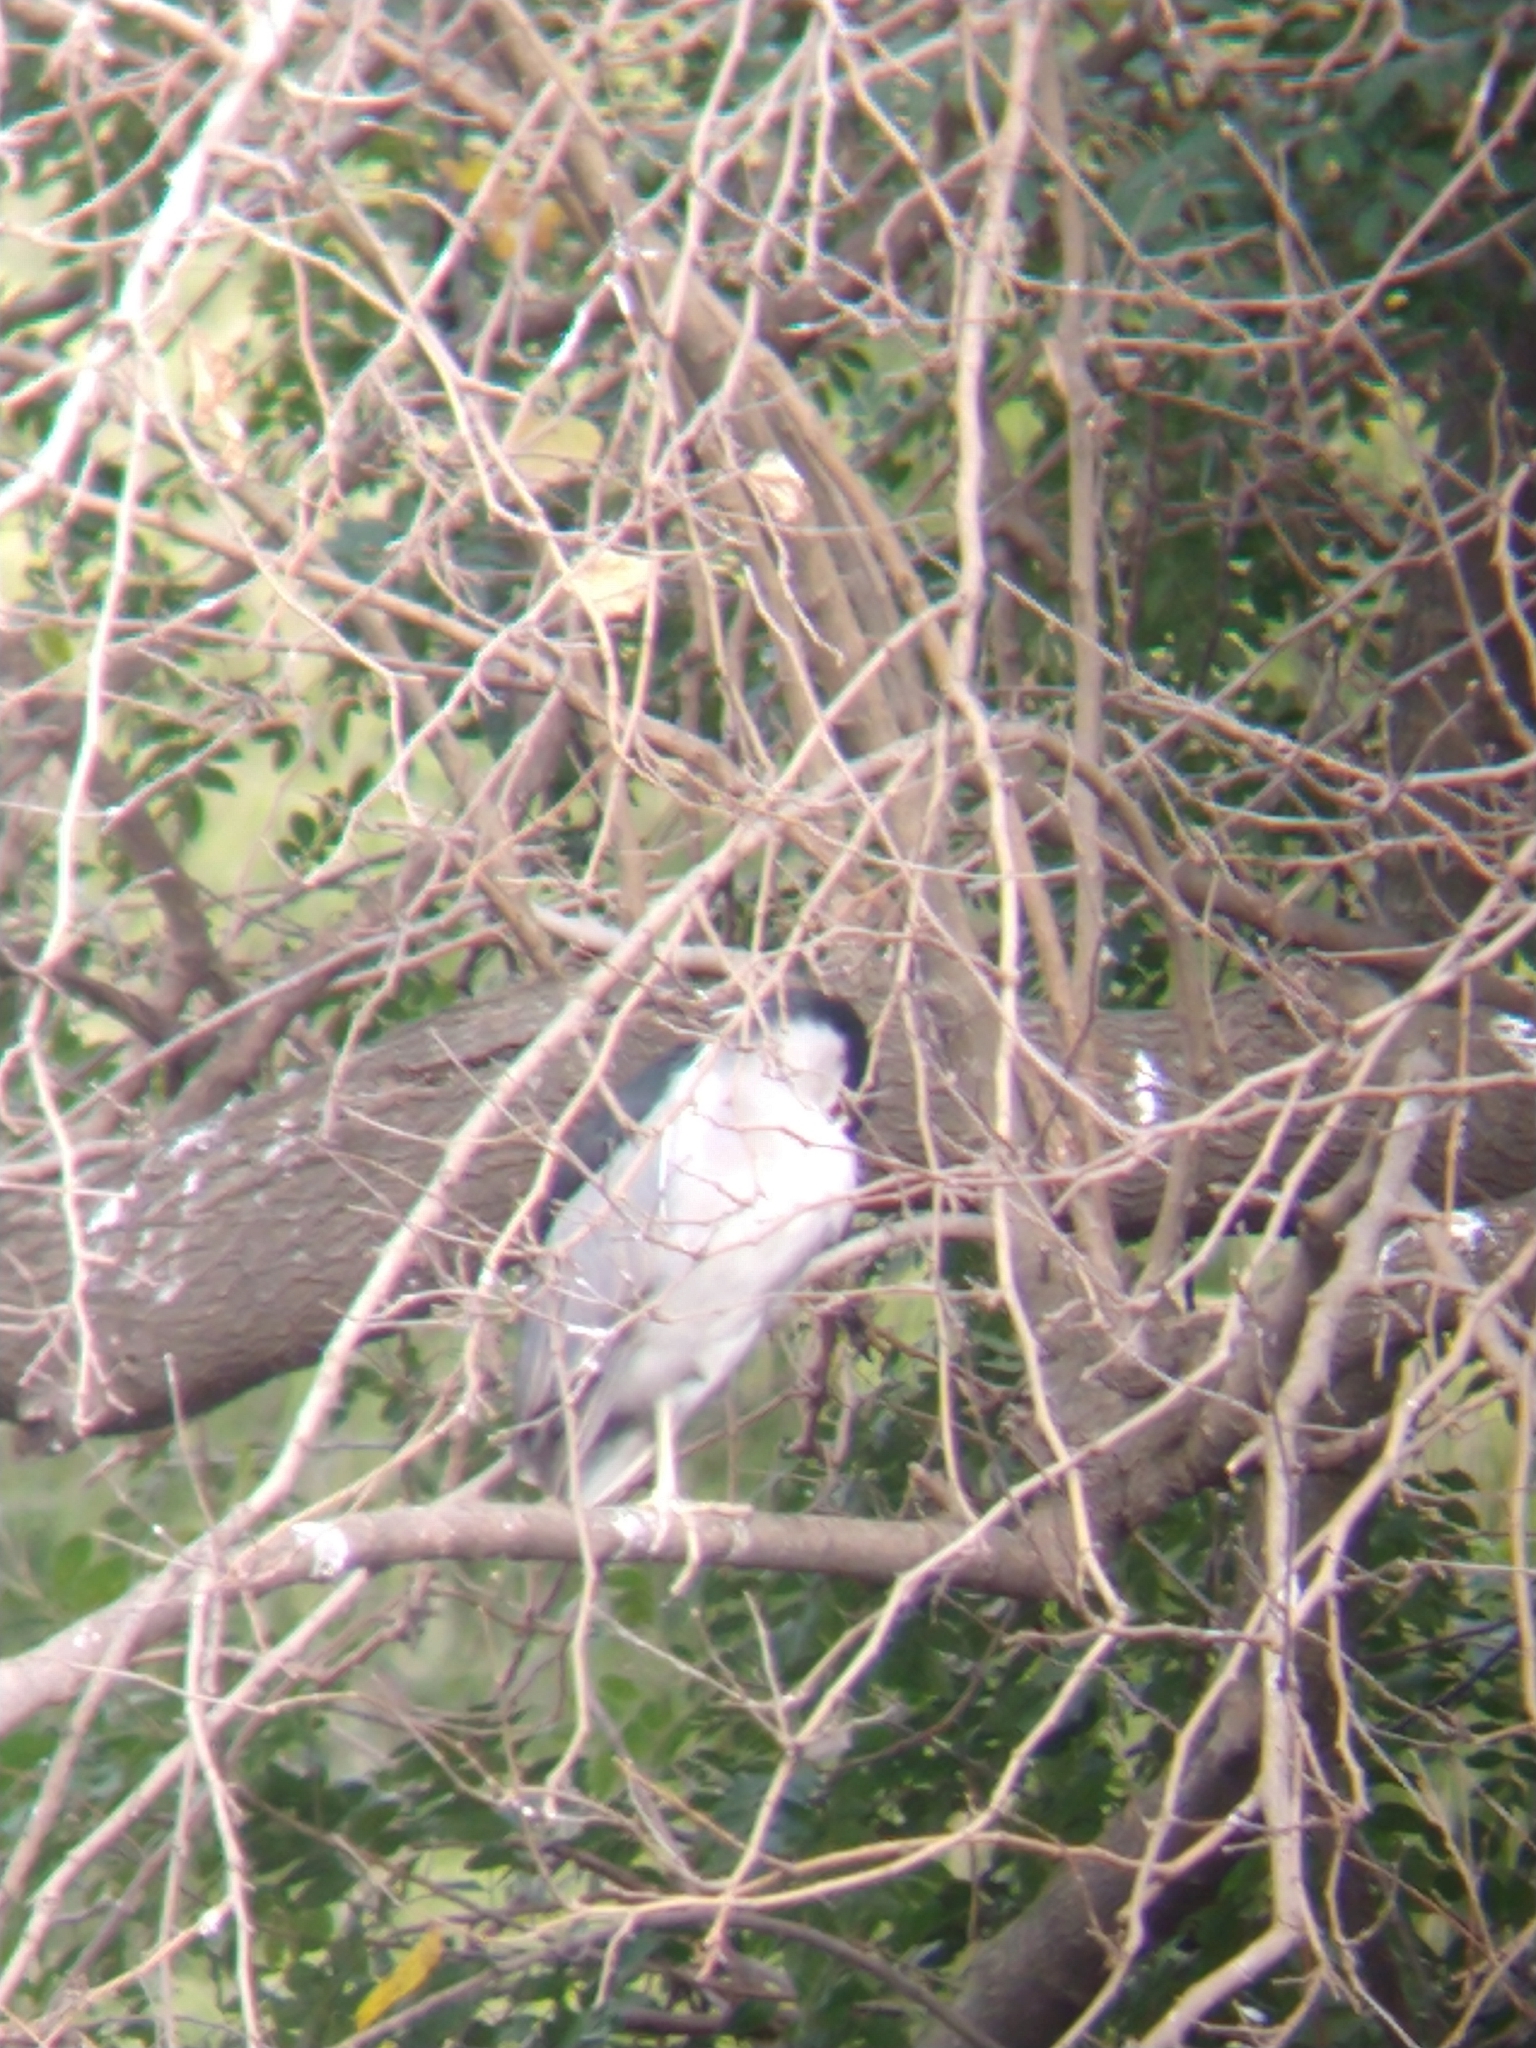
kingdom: Animalia
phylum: Chordata
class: Aves
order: Pelecaniformes
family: Ardeidae
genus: Nycticorax
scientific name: Nycticorax nycticorax
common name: Black-crowned night heron
